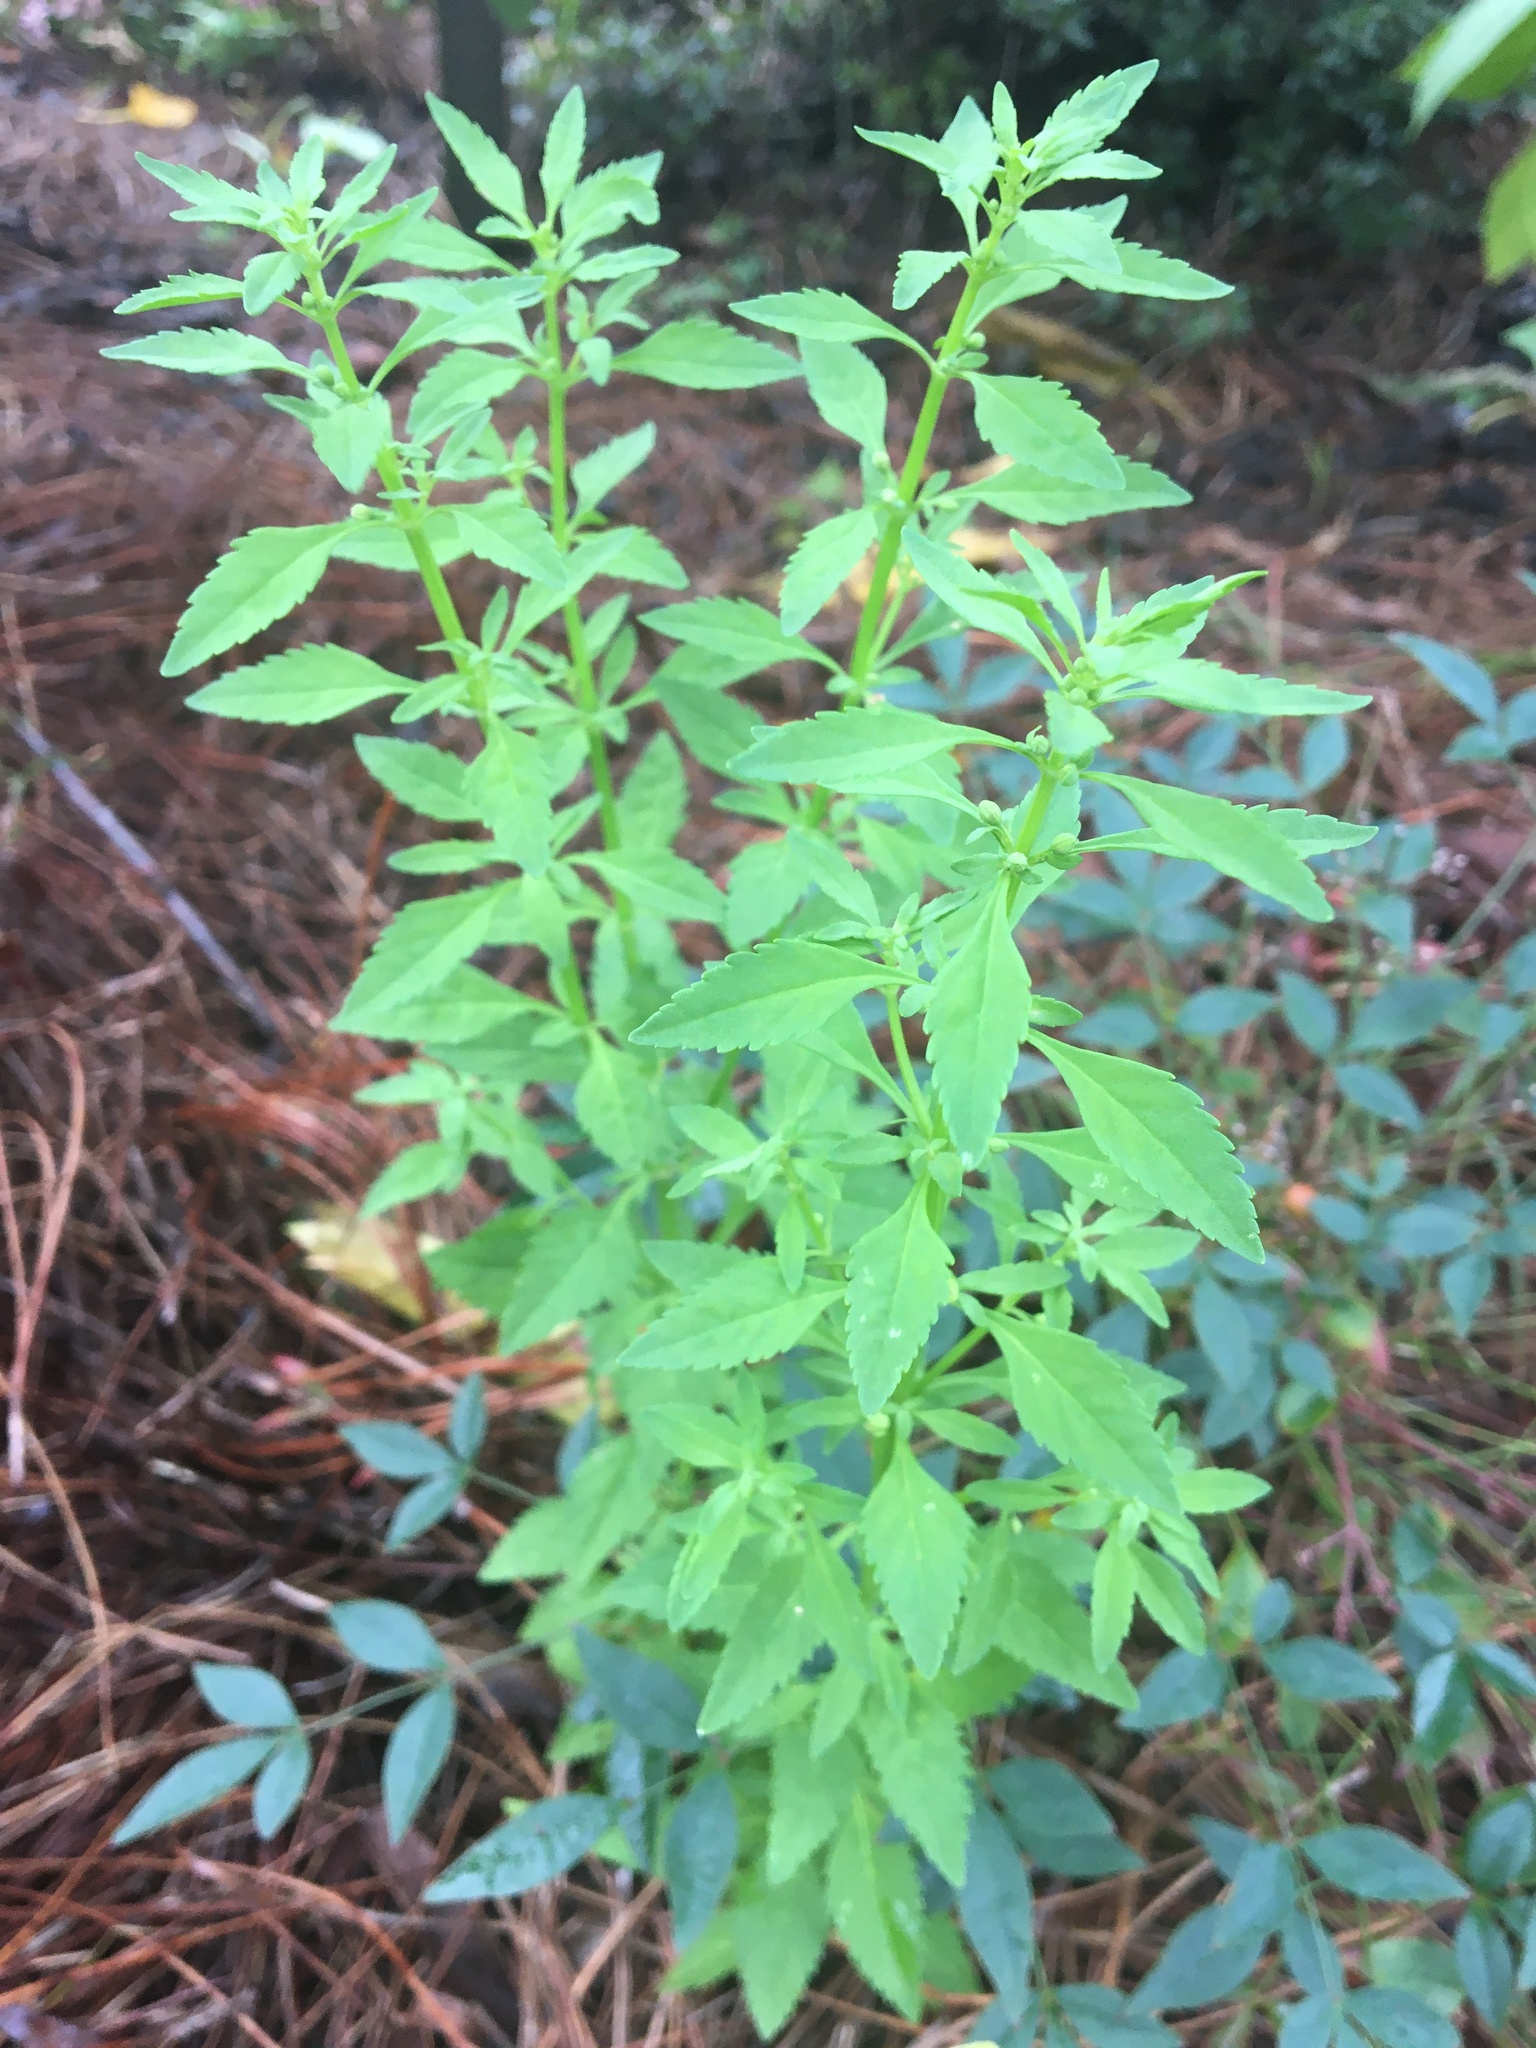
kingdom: Plantae
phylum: Tracheophyta
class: Magnoliopsida
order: Lamiales
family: Plantaginaceae
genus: Scoparia
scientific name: Scoparia dulcis
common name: Scoparia-weed
